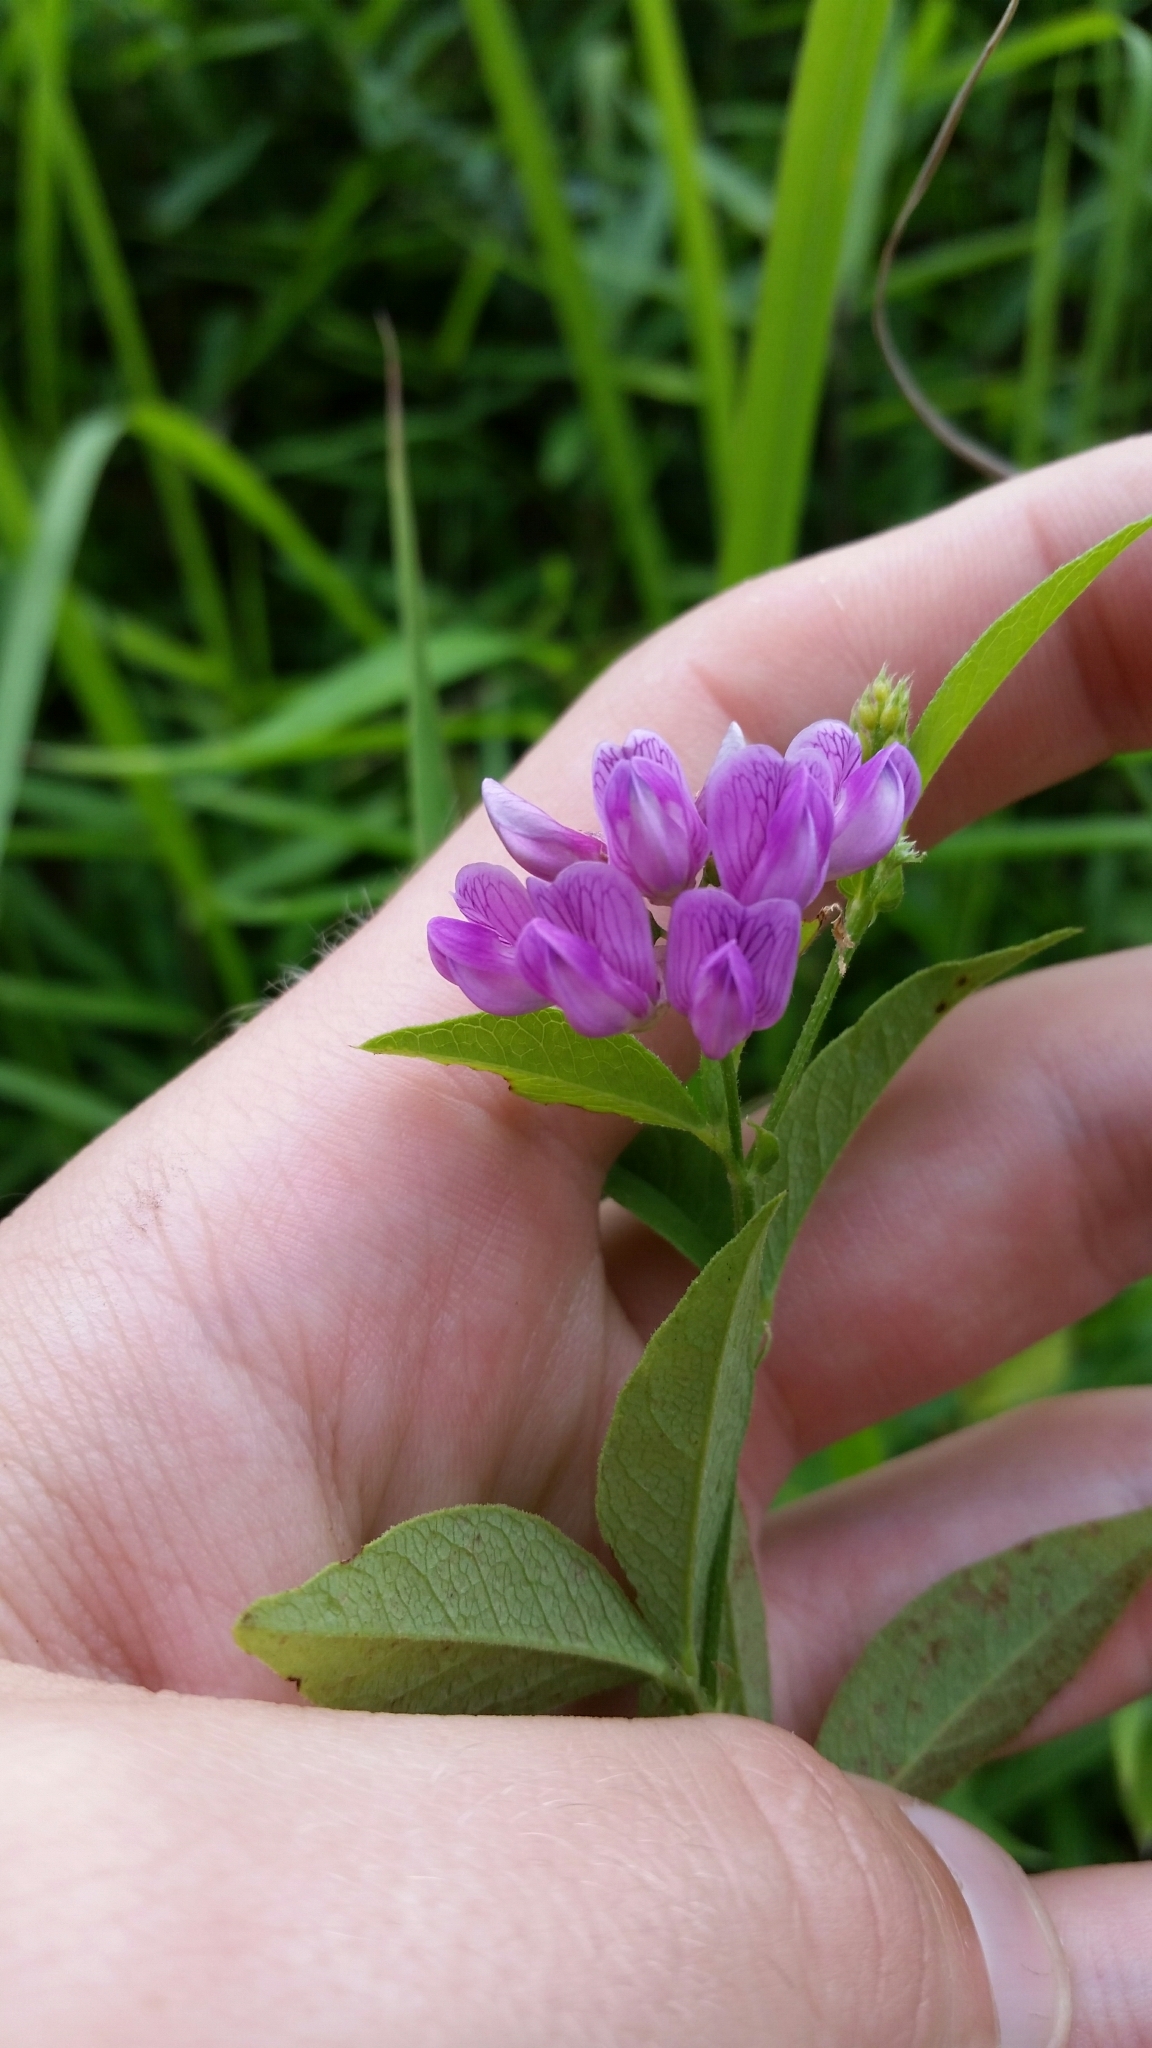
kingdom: Plantae
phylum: Tracheophyta
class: Magnoliopsida
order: Fabales
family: Fabaceae
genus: Vicia
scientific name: Vicia unijuga
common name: Two-leaf vetch
